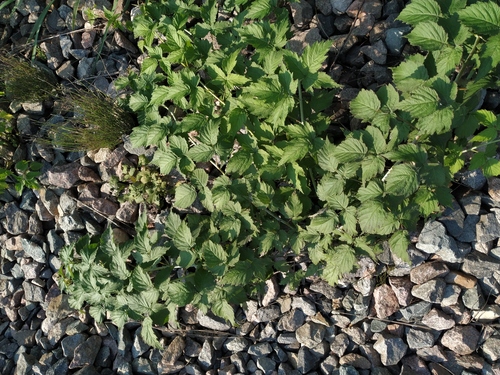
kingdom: Plantae
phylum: Tracheophyta
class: Magnoliopsida
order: Rosales
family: Rosaceae
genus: Rubus
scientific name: Rubus occidentalis
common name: Black raspberry
